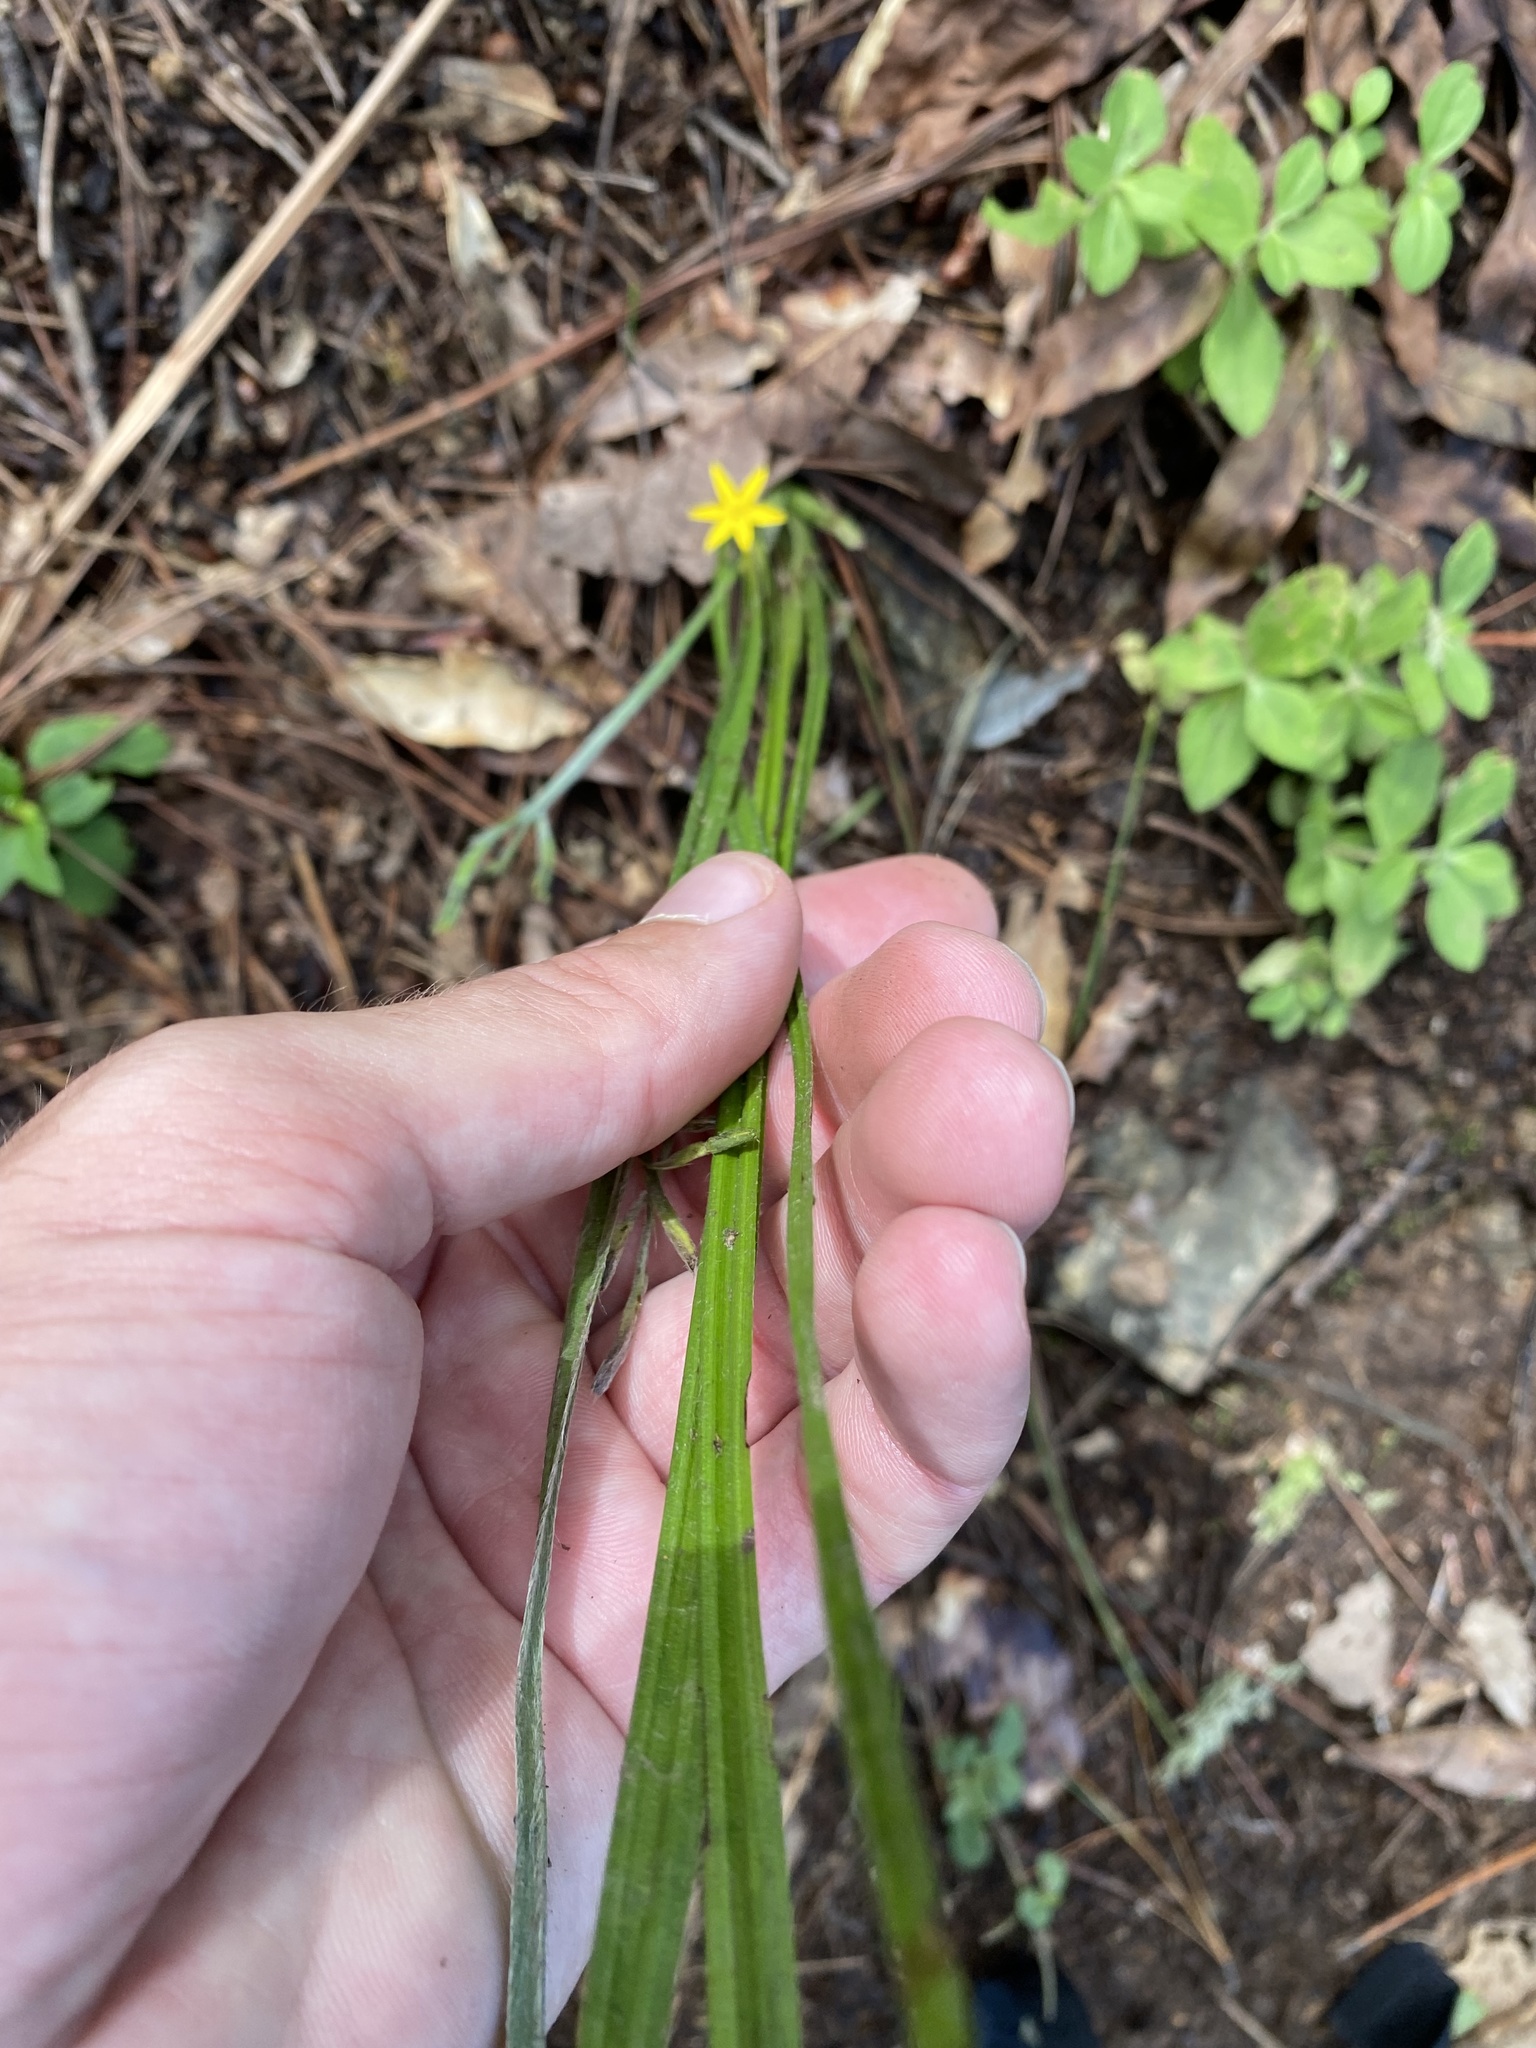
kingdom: Plantae
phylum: Tracheophyta
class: Liliopsida
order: Asparagales
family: Hypoxidaceae
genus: Hypoxis
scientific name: Hypoxis hirsuta
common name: Common goldstar
